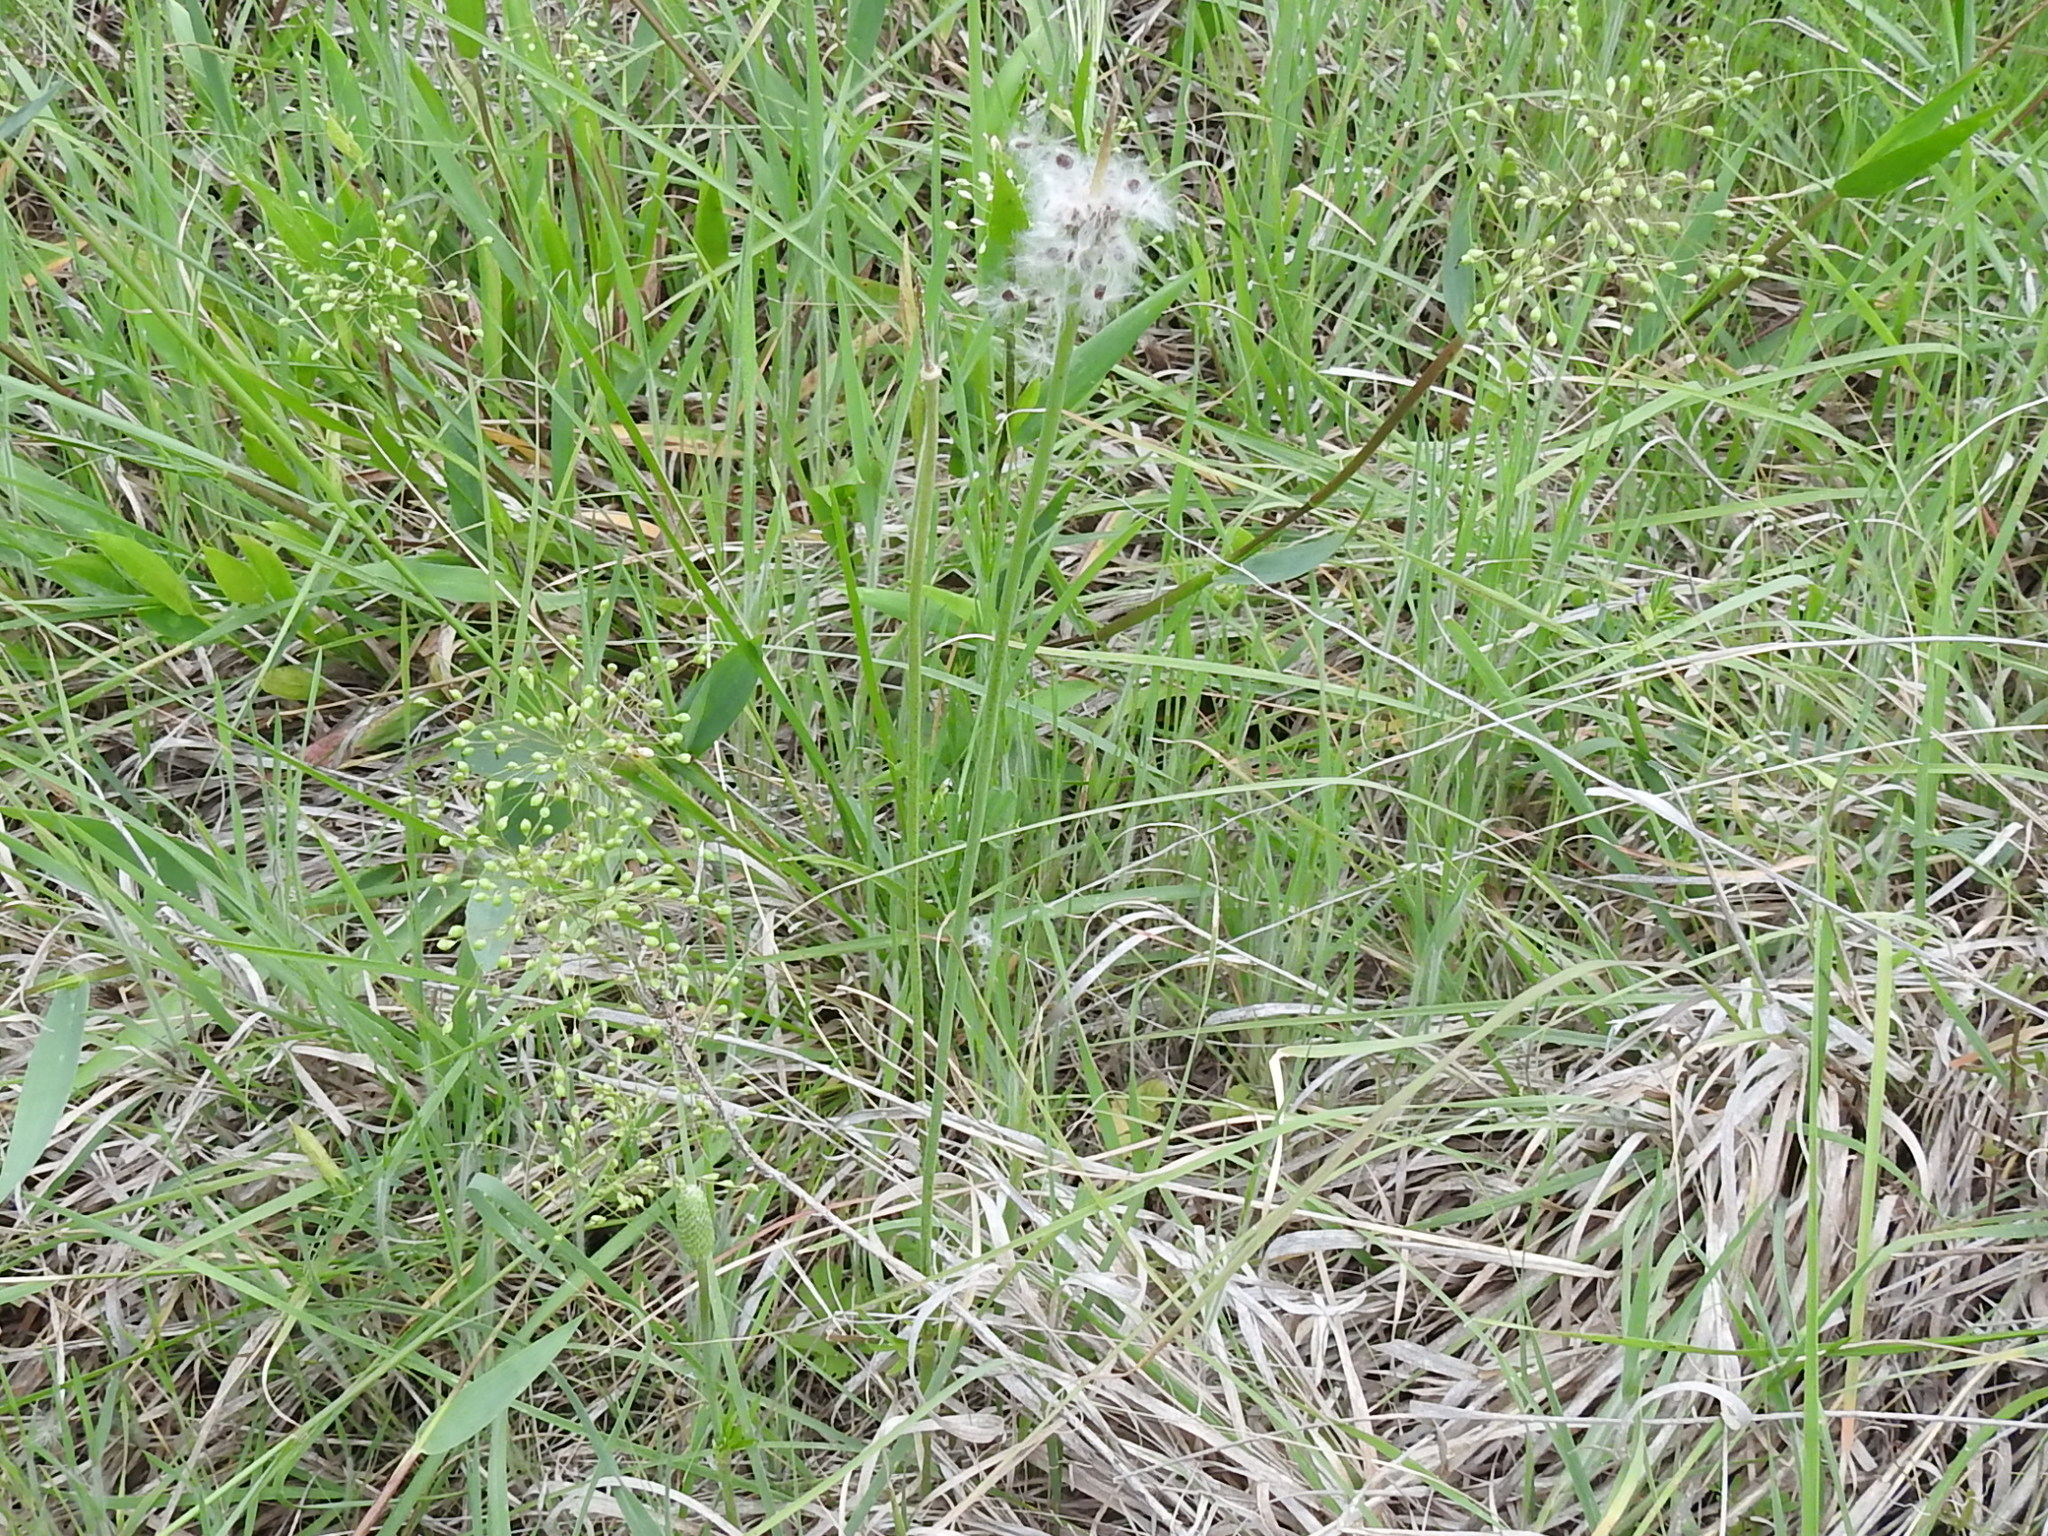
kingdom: Plantae
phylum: Tracheophyta
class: Magnoliopsida
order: Ranunculales
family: Ranunculaceae
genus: Anemone
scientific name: Anemone berlandieri
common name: Ten-petal anemone
